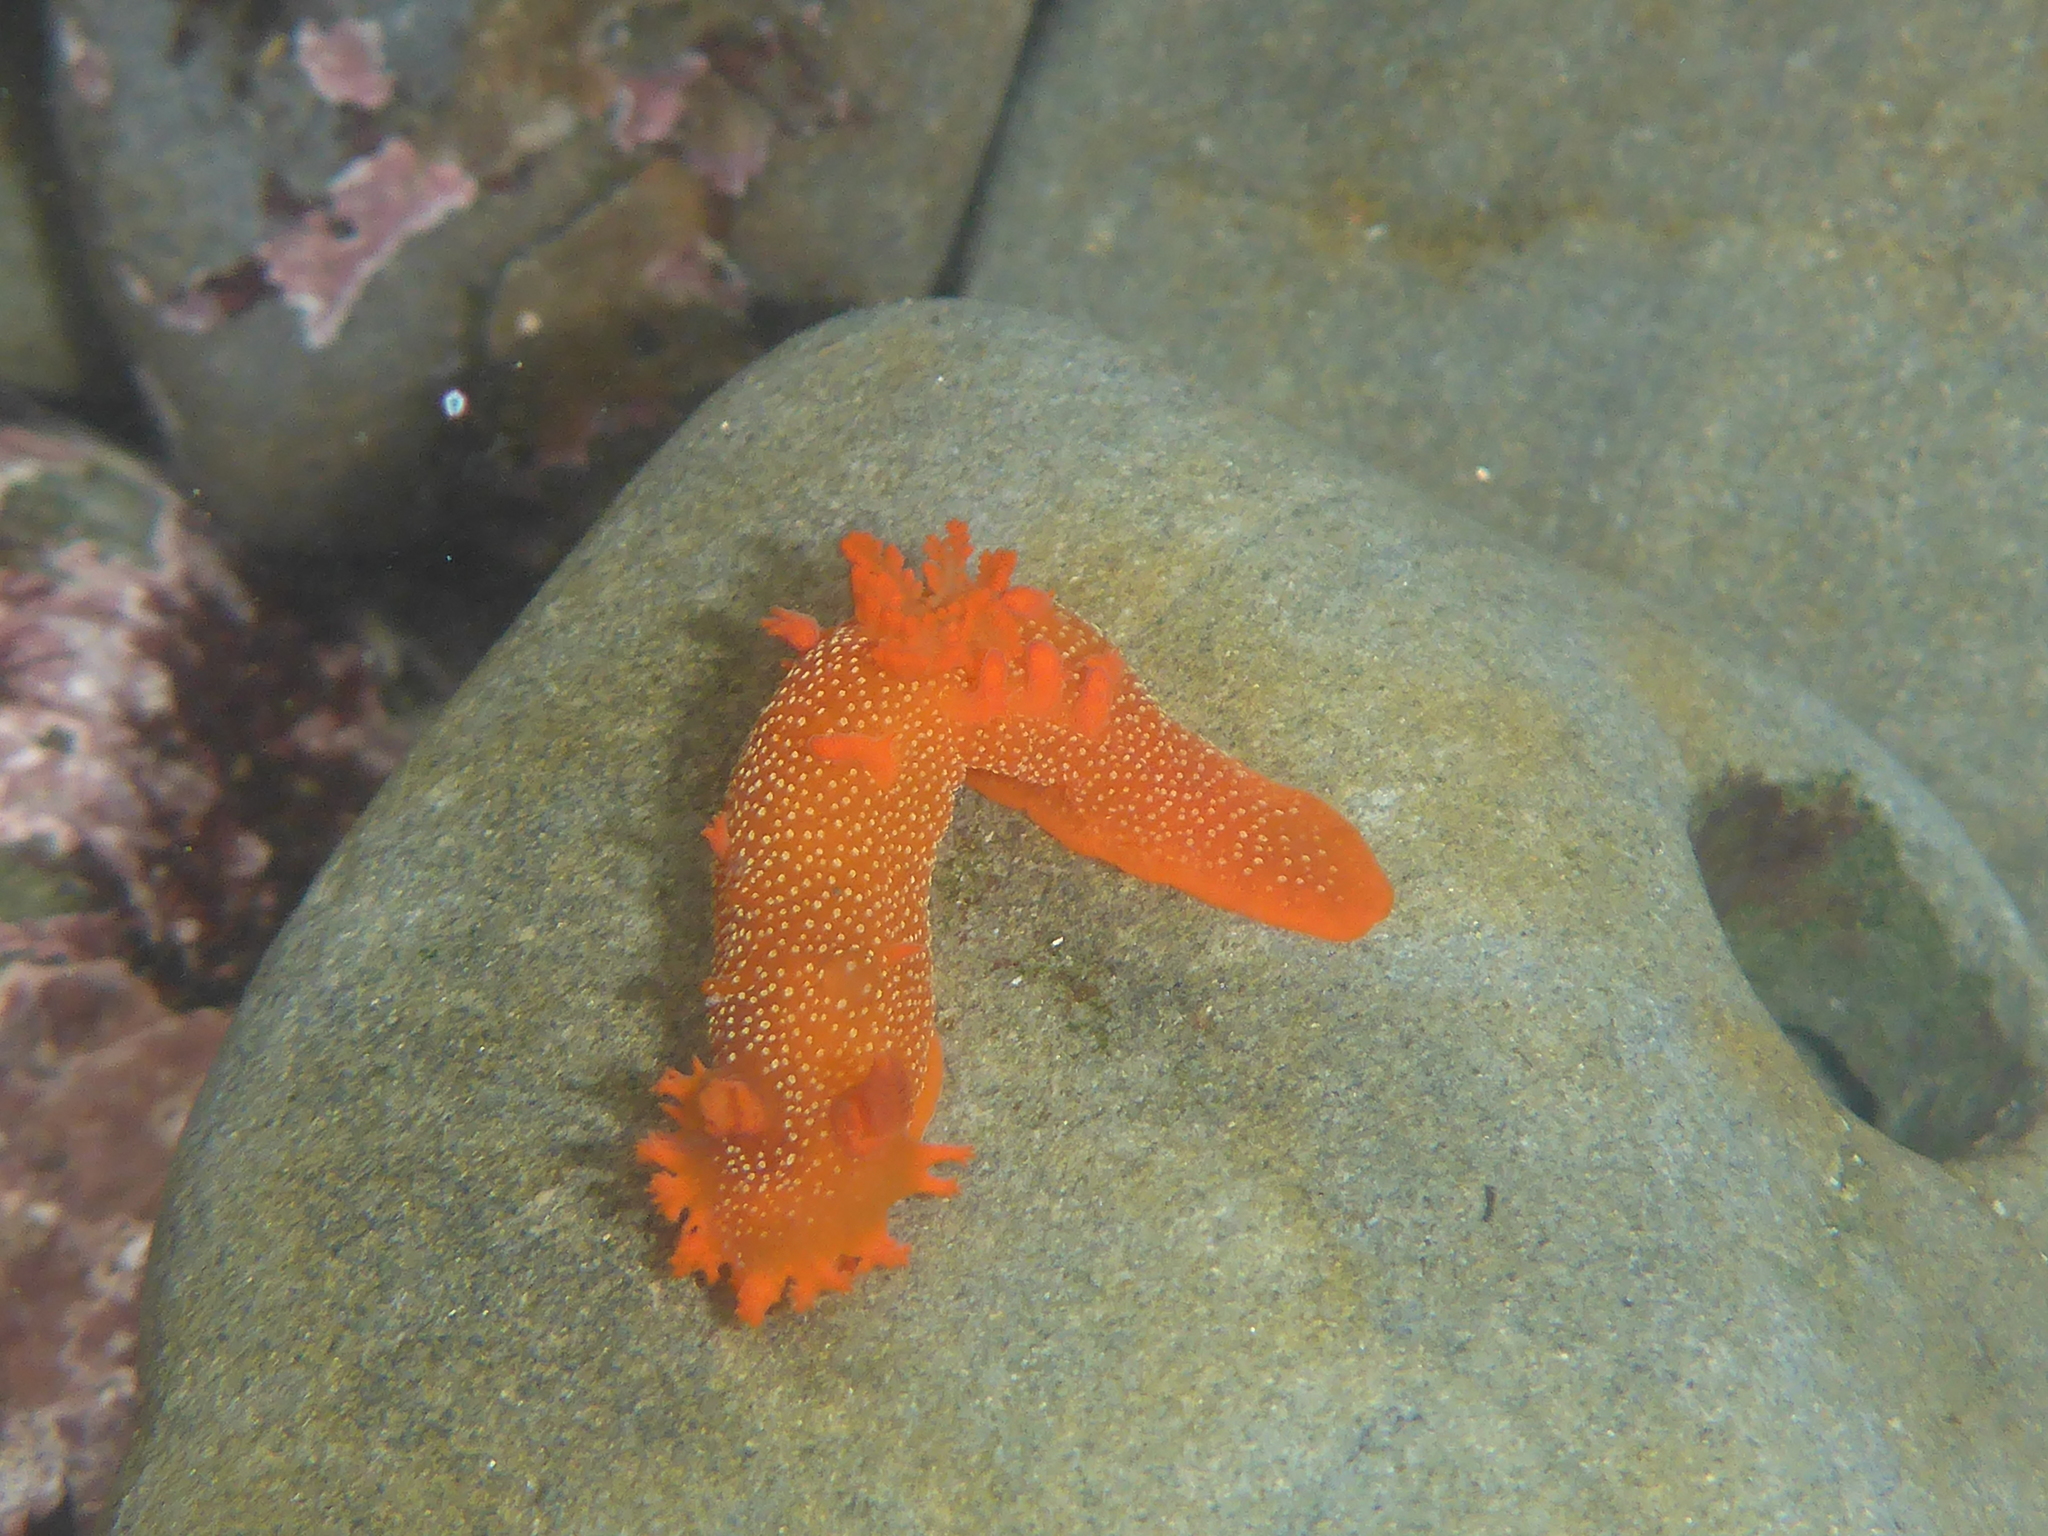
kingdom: Animalia
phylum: Mollusca
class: Gastropoda
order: Nudibranchia
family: Polyceridae
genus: Triopha
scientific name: Triopha maculata
